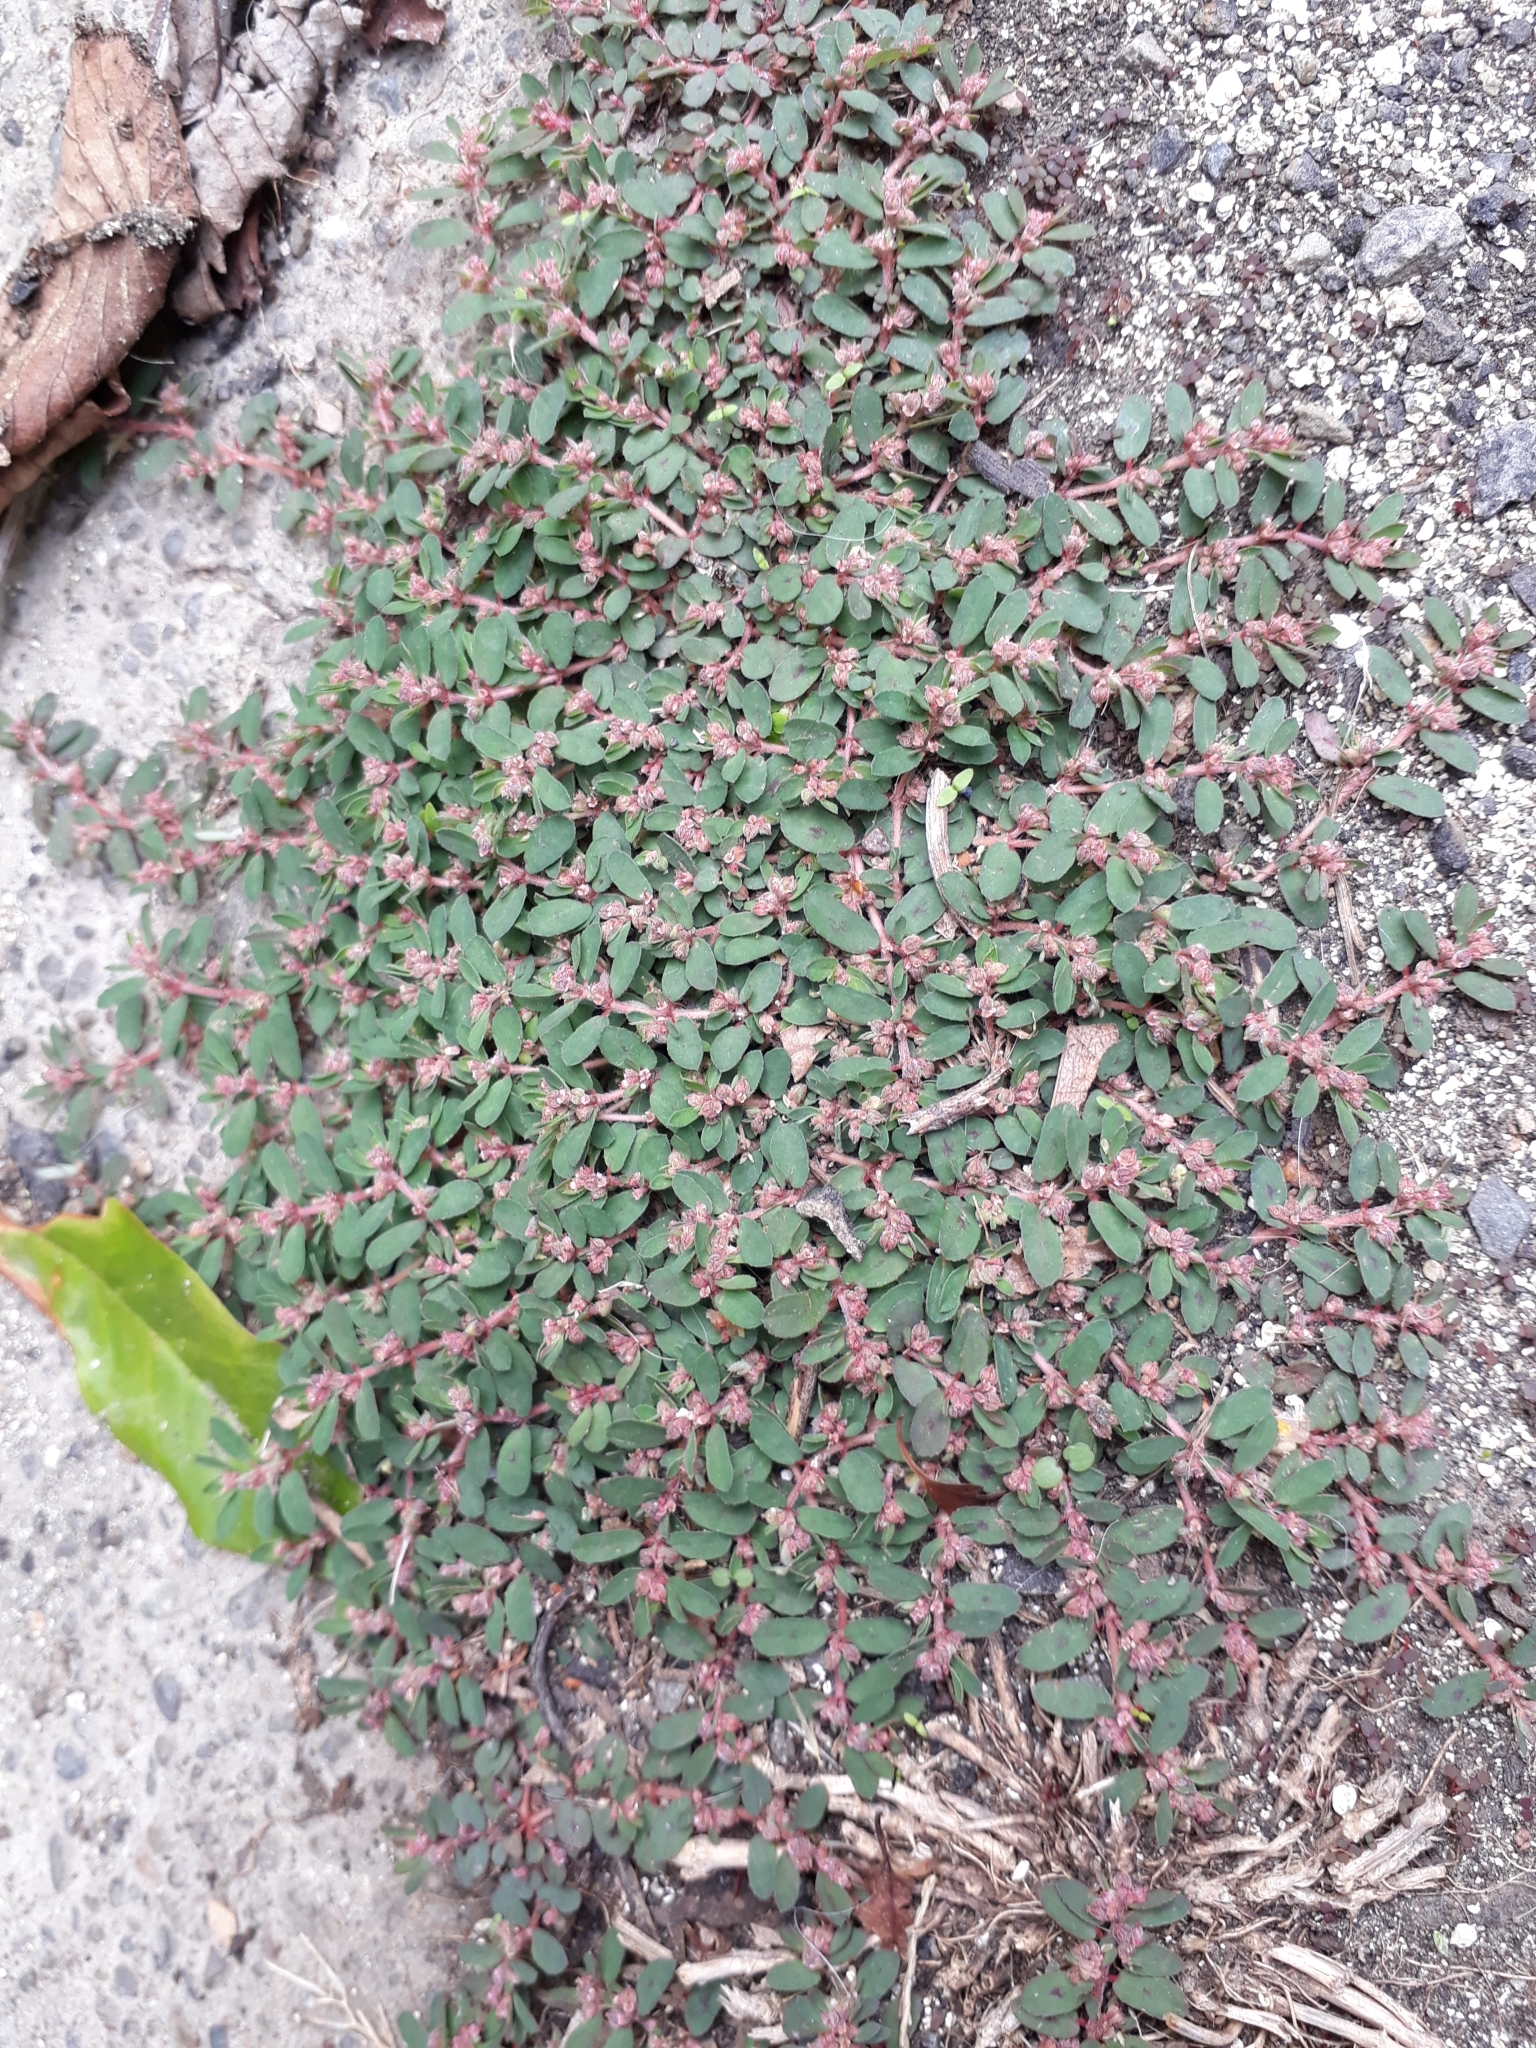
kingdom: Plantae
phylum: Tracheophyta
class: Magnoliopsida
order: Malpighiales
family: Euphorbiaceae
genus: Euphorbia
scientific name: Euphorbia maculata
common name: Spotted spurge
